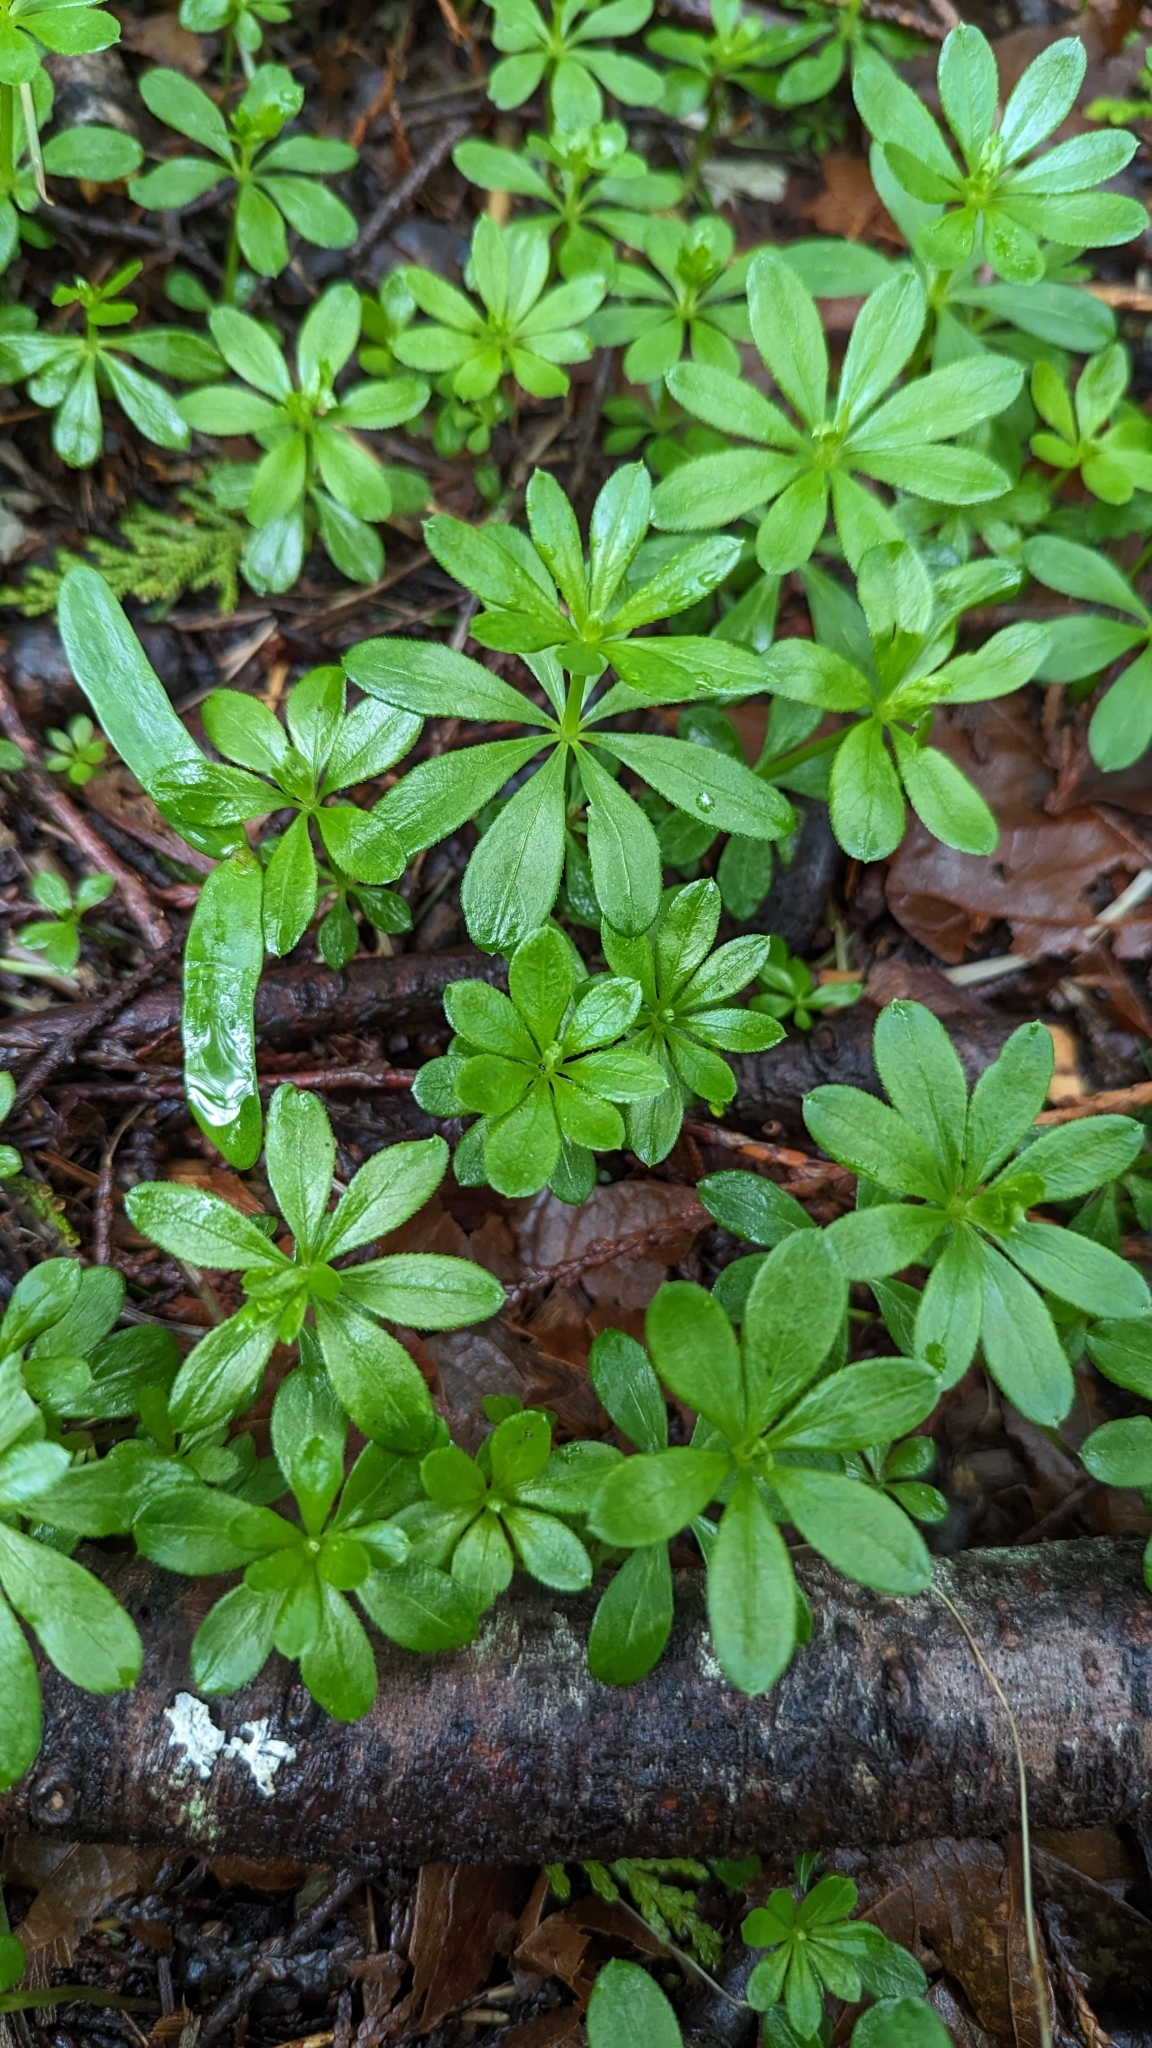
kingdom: Plantae
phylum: Tracheophyta
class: Magnoliopsida
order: Gentianales
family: Rubiaceae
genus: Galium
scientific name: Galium triflorum
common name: Fragrant bedstraw
